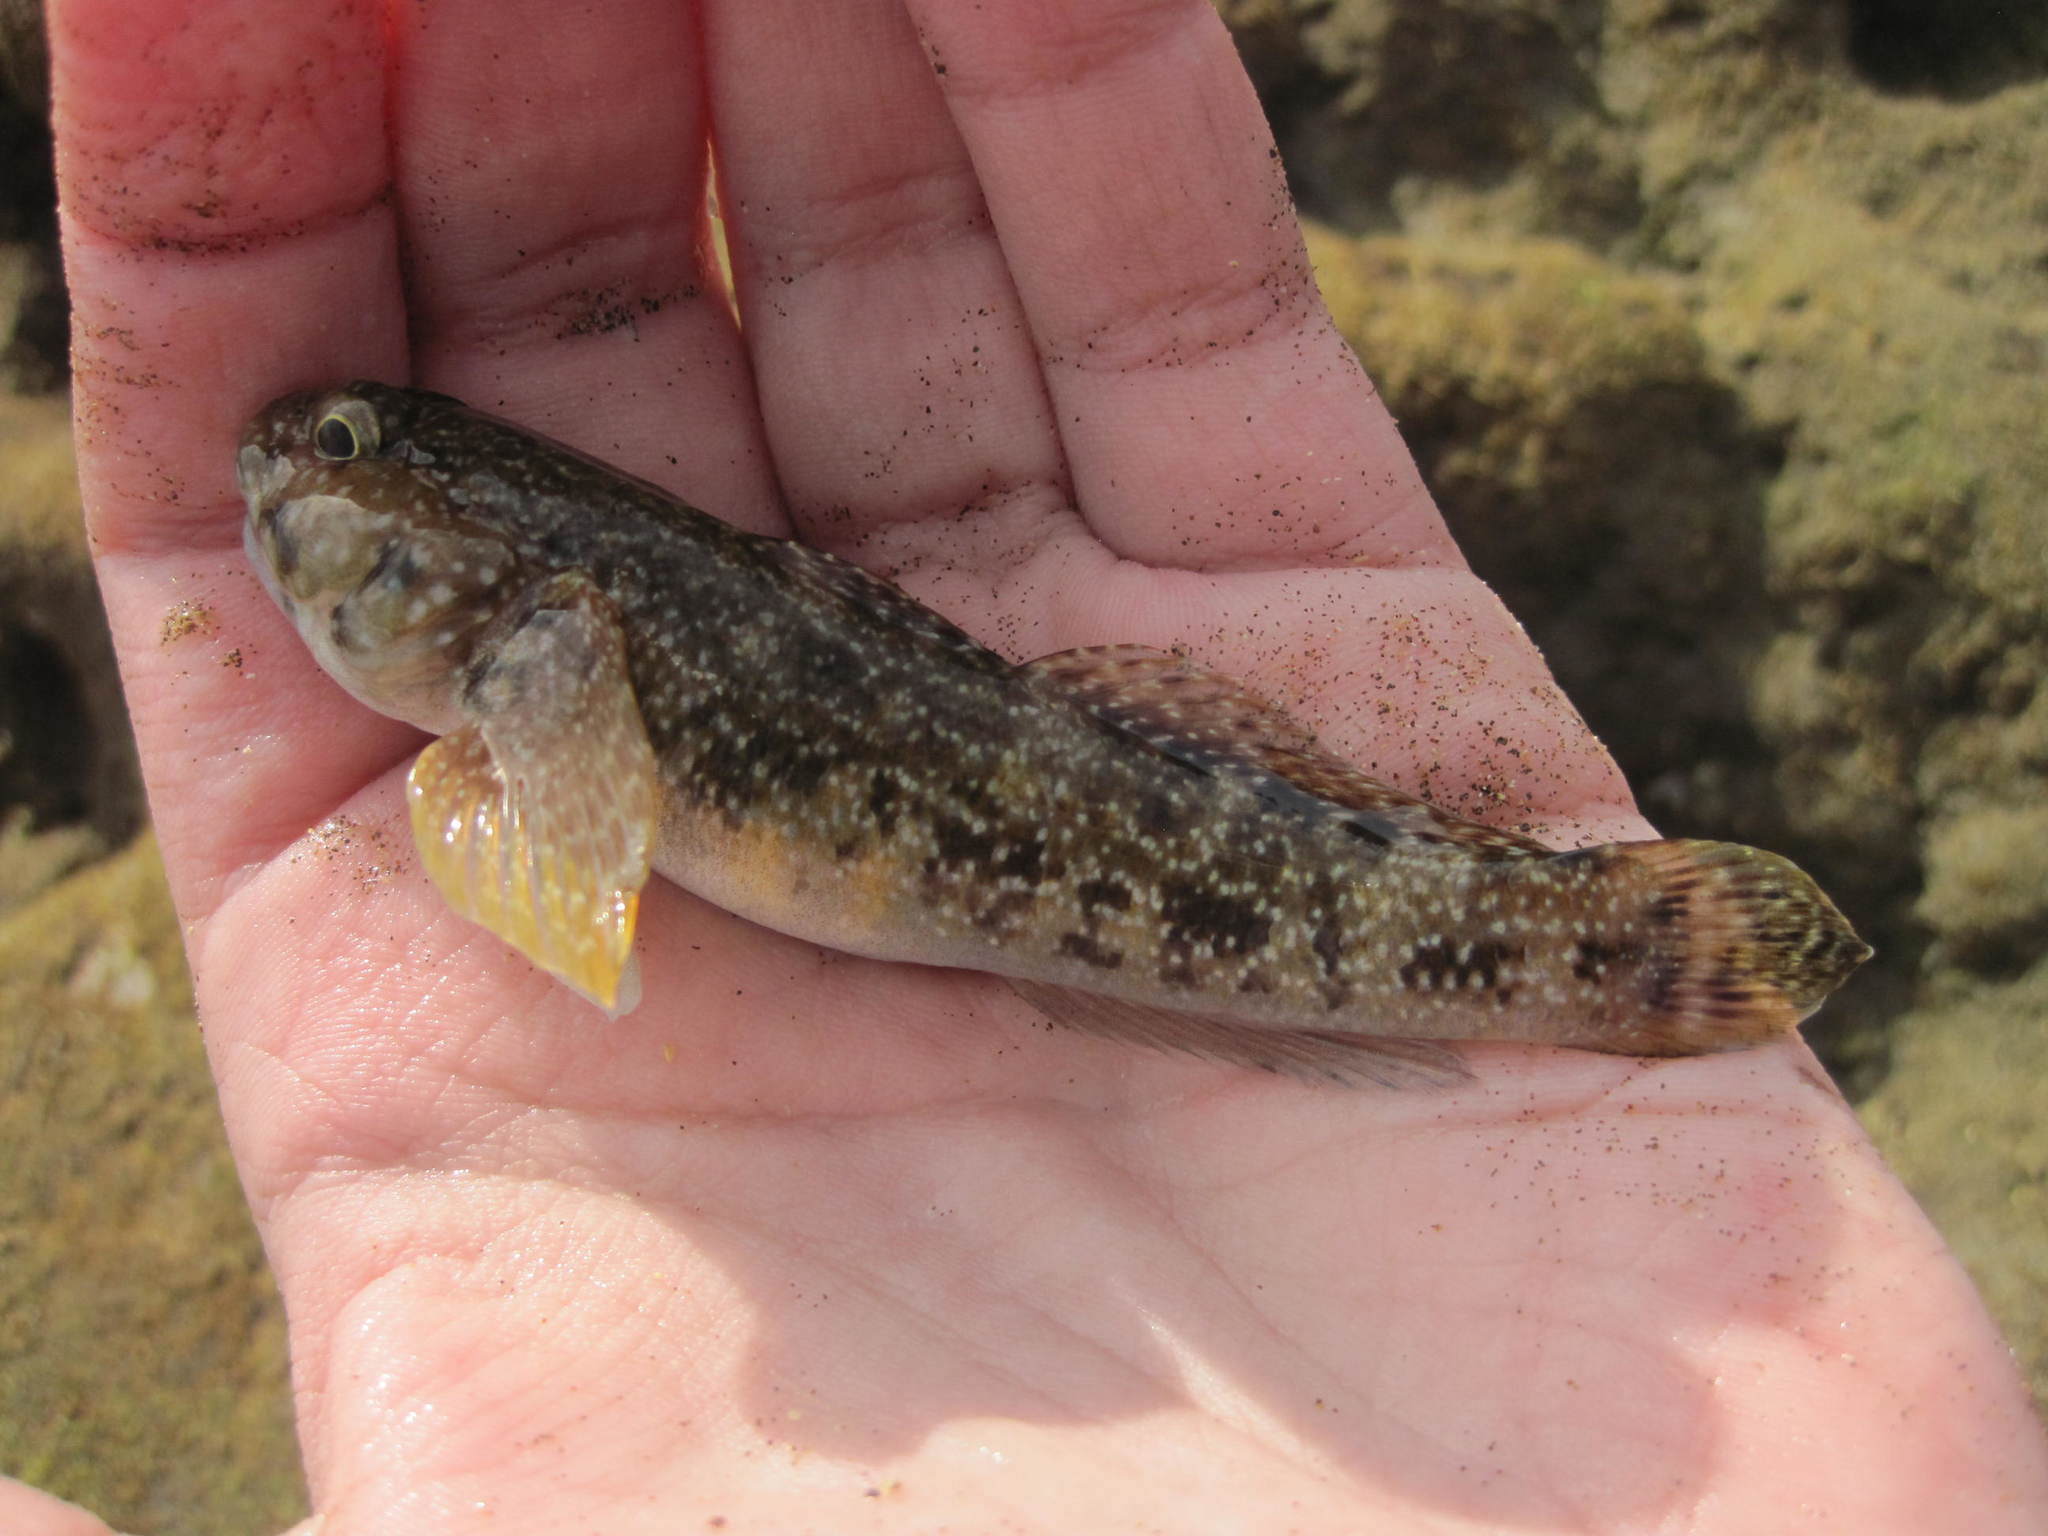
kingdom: Animalia
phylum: Chordata
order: Perciformes
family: Gobiidae
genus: Mauligobius
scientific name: Mauligobius maderensis
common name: Rock goby
